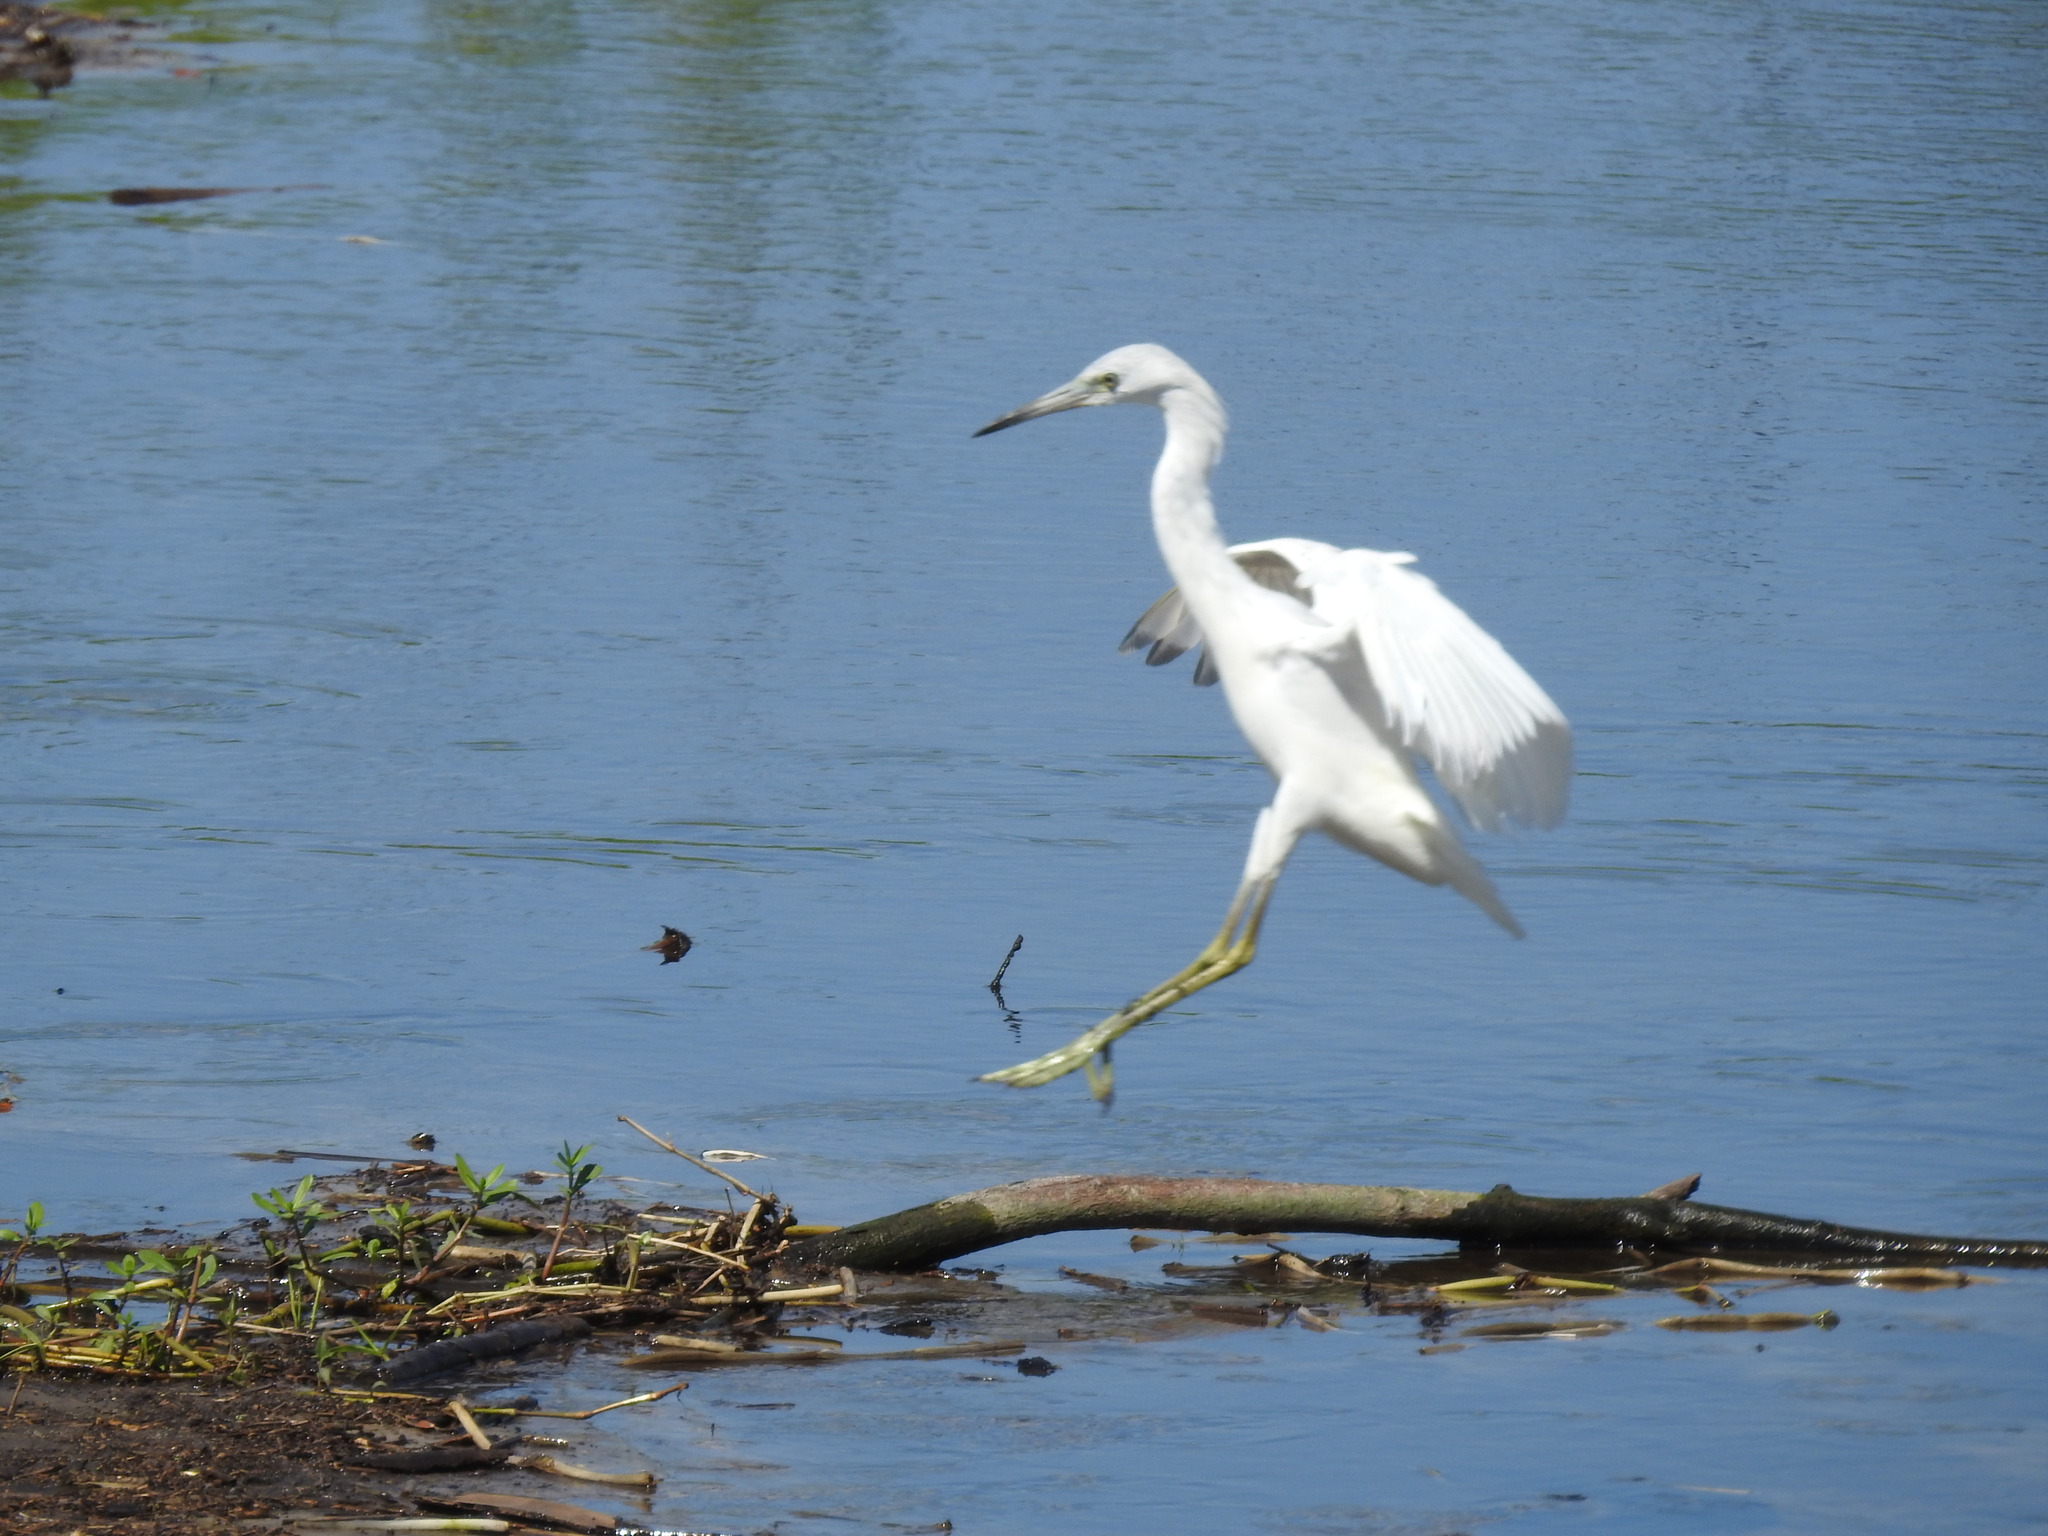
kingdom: Animalia
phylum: Chordata
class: Aves
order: Pelecaniformes
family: Ardeidae
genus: Egretta
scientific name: Egretta caerulea
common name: Little blue heron
